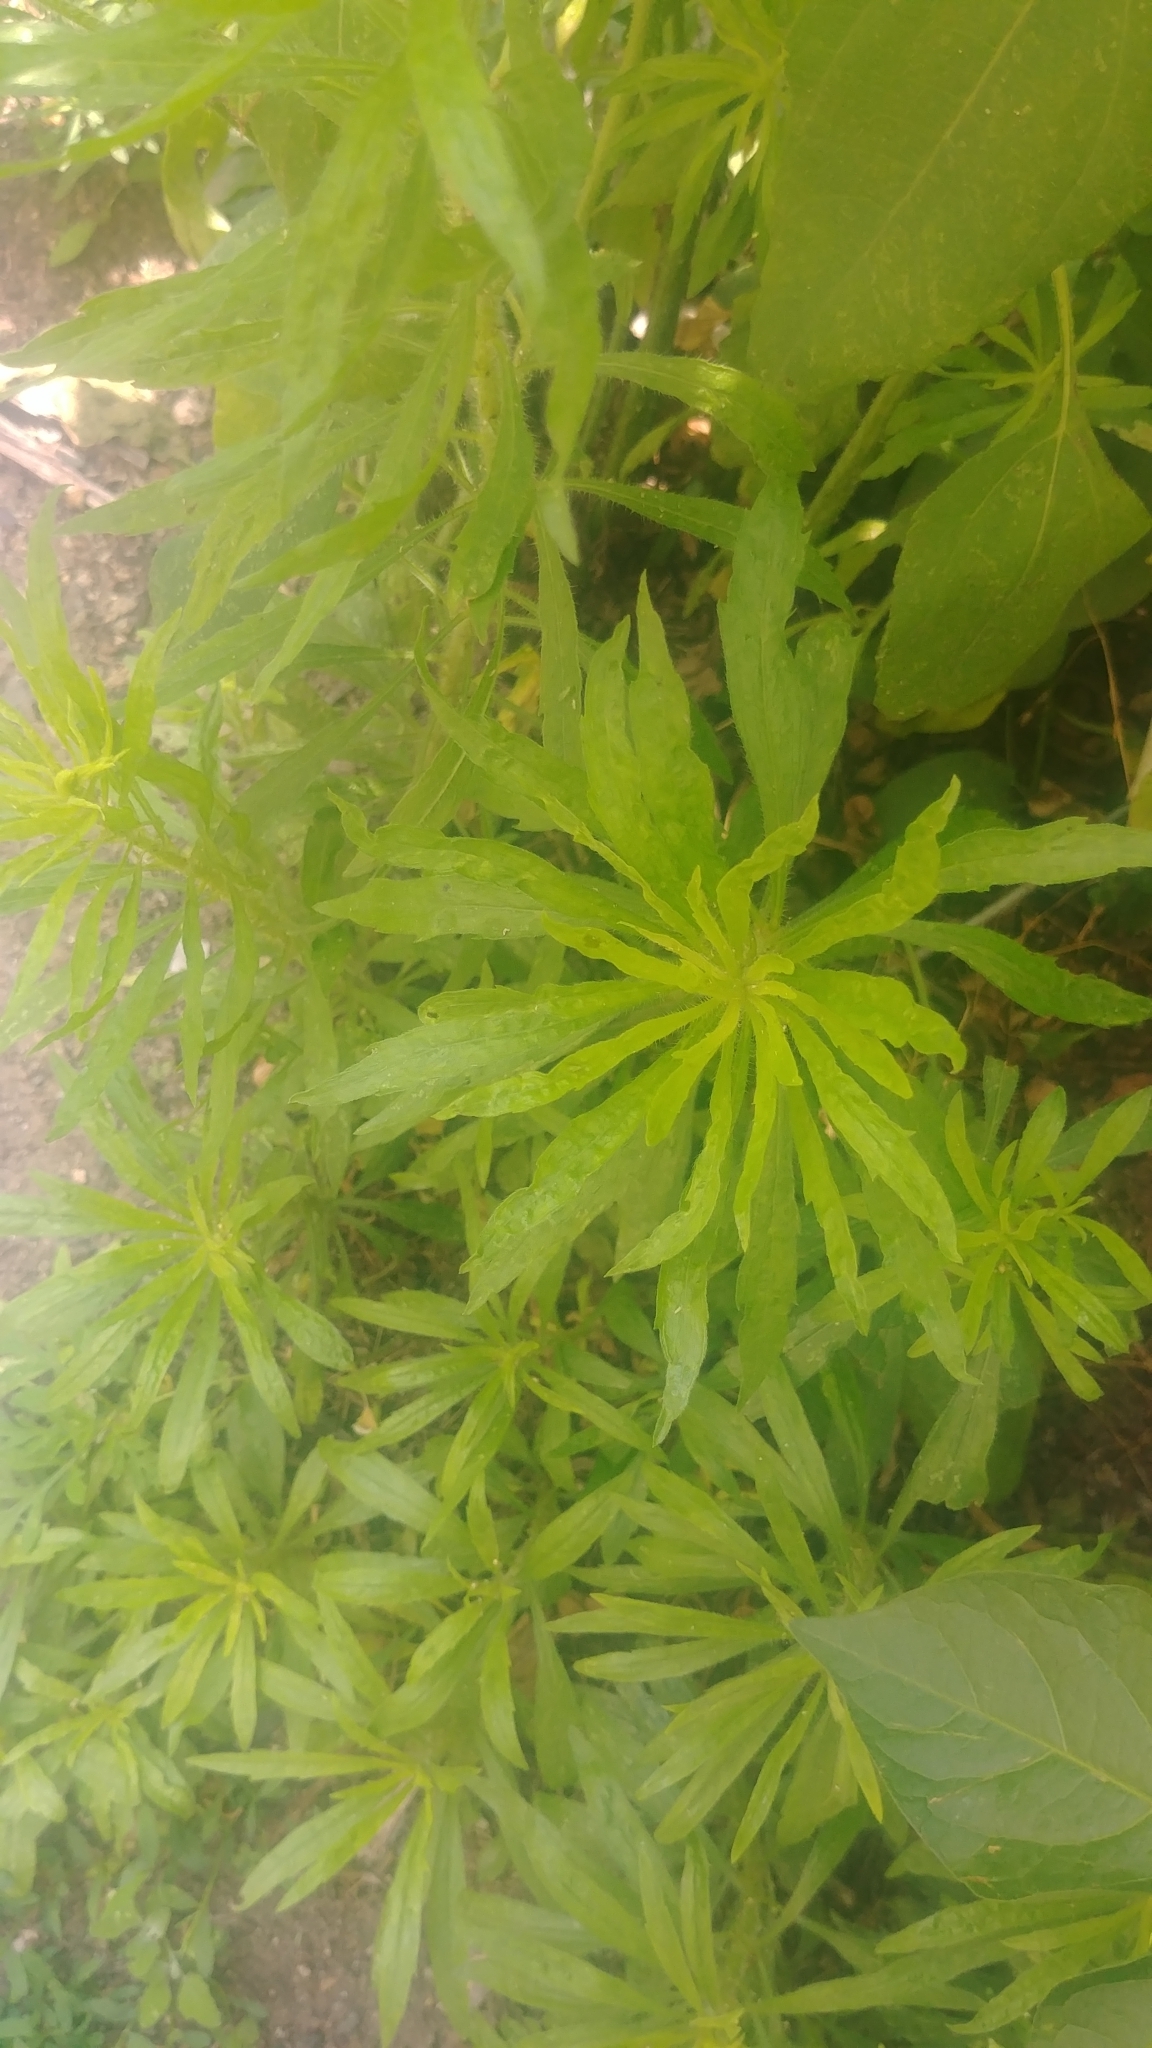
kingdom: Plantae
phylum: Tracheophyta
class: Magnoliopsida
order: Asterales
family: Asteraceae
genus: Erigeron
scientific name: Erigeron canadensis
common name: Canadian fleabane
